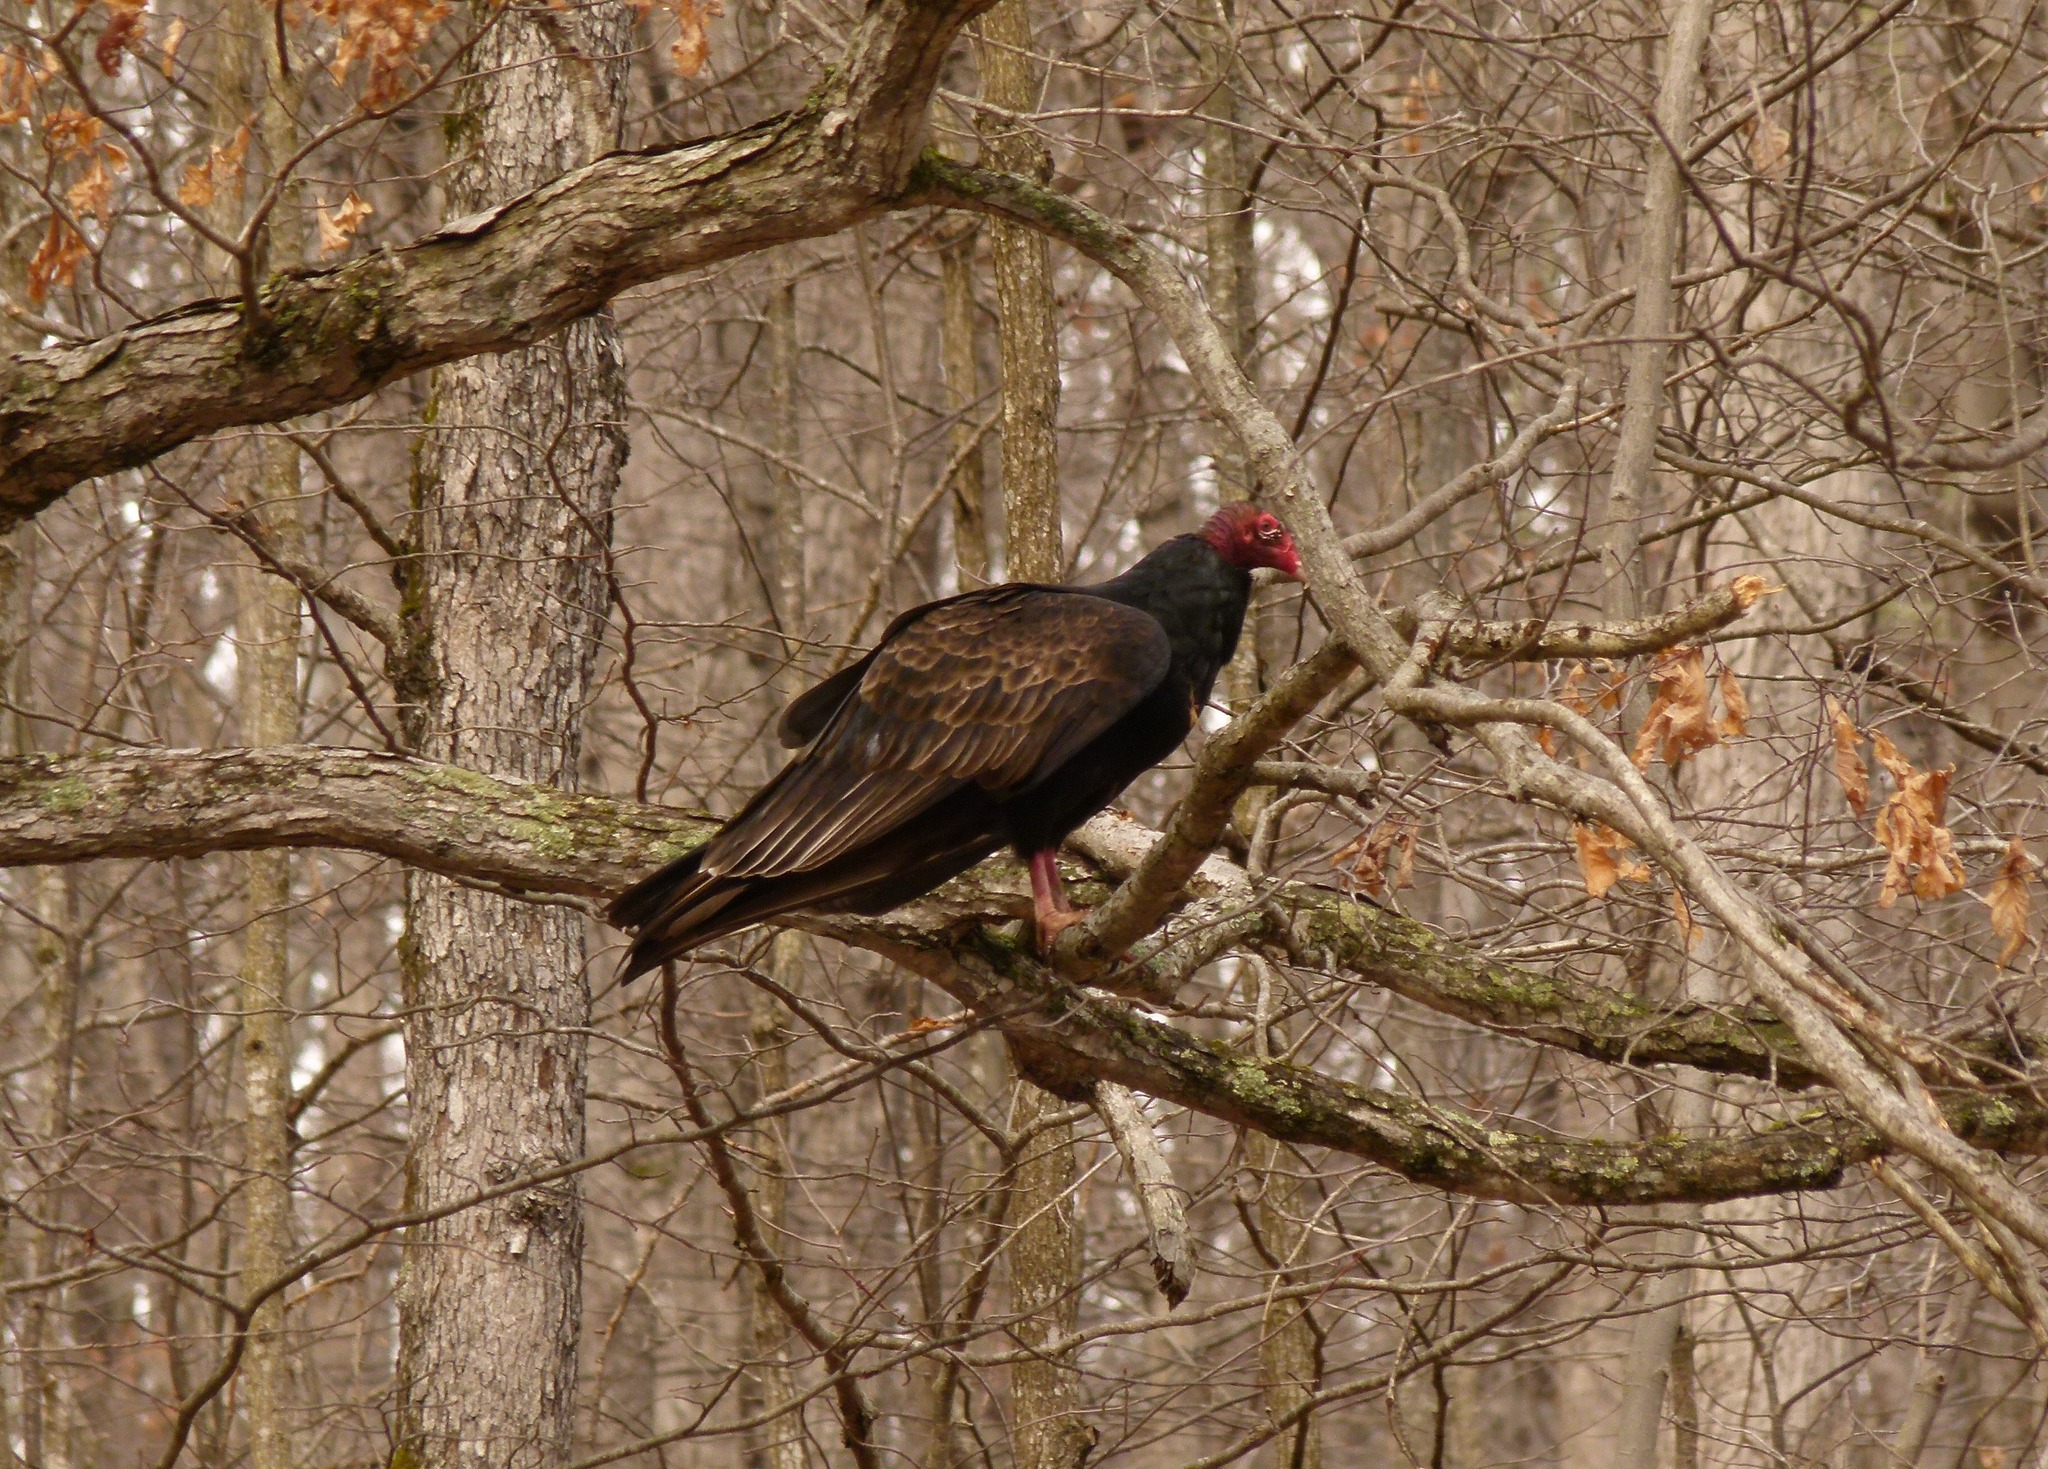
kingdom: Animalia
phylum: Chordata
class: Aves
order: Accipitriformes
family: Cathartidae
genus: Cathartes
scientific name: Cathartes aura
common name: Turkey vulture
